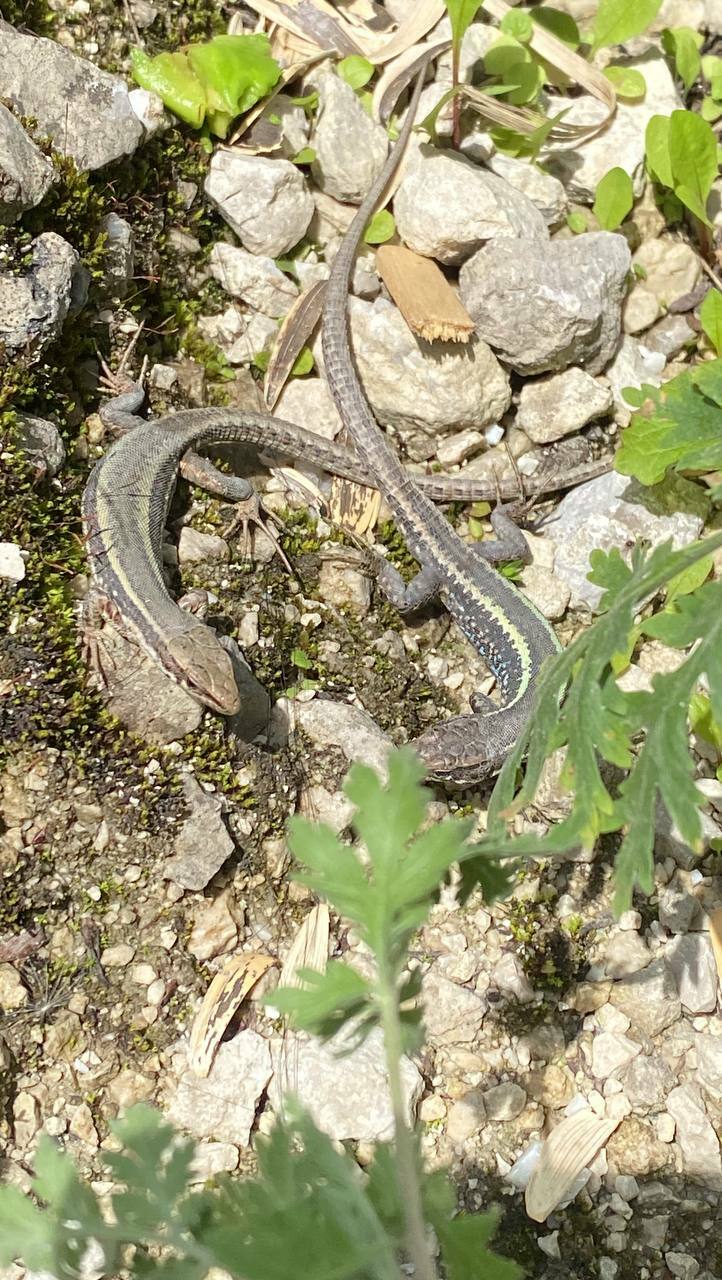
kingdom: Animalia
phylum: Chordata
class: Squamata
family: Lacertidae
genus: Darevskia
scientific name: Darevskia caucasica
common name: Caucasian llzard
